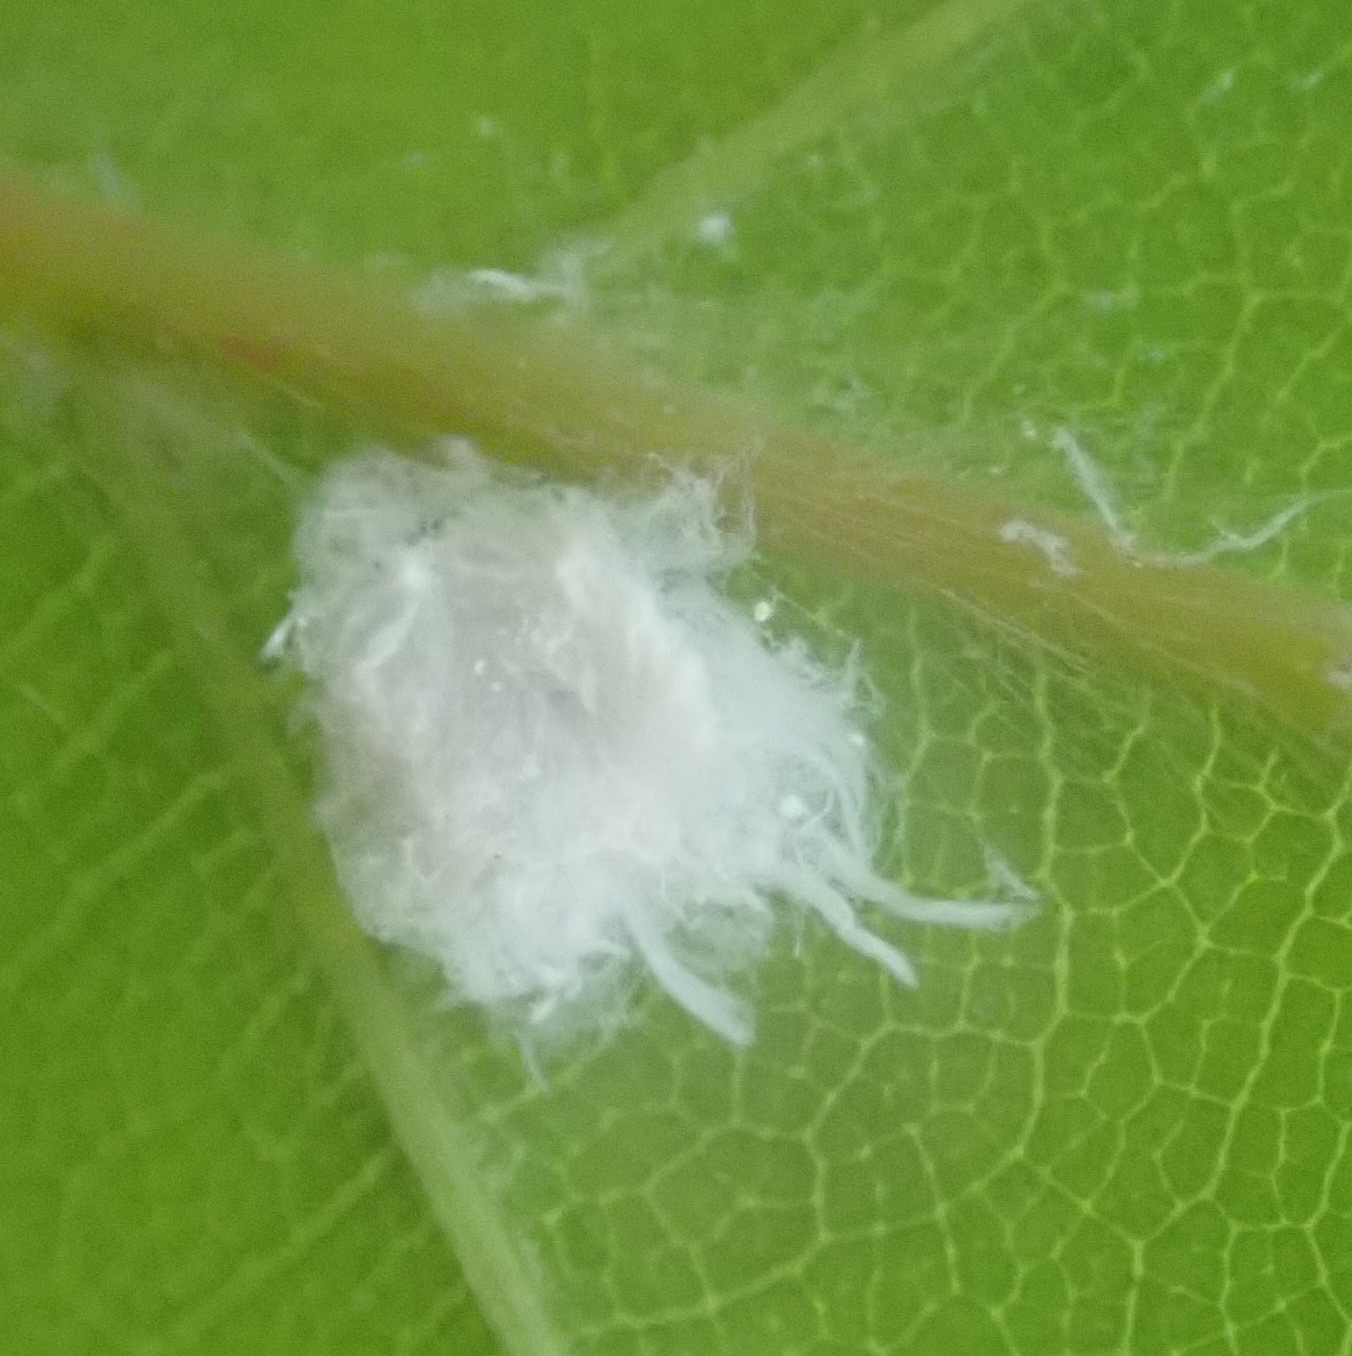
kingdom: Animalia
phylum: Arthropoda
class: Insecta
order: Hemiptera
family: Aphididae
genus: Phyllaphis
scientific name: Phyllaphis fagi
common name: Beech aphid
